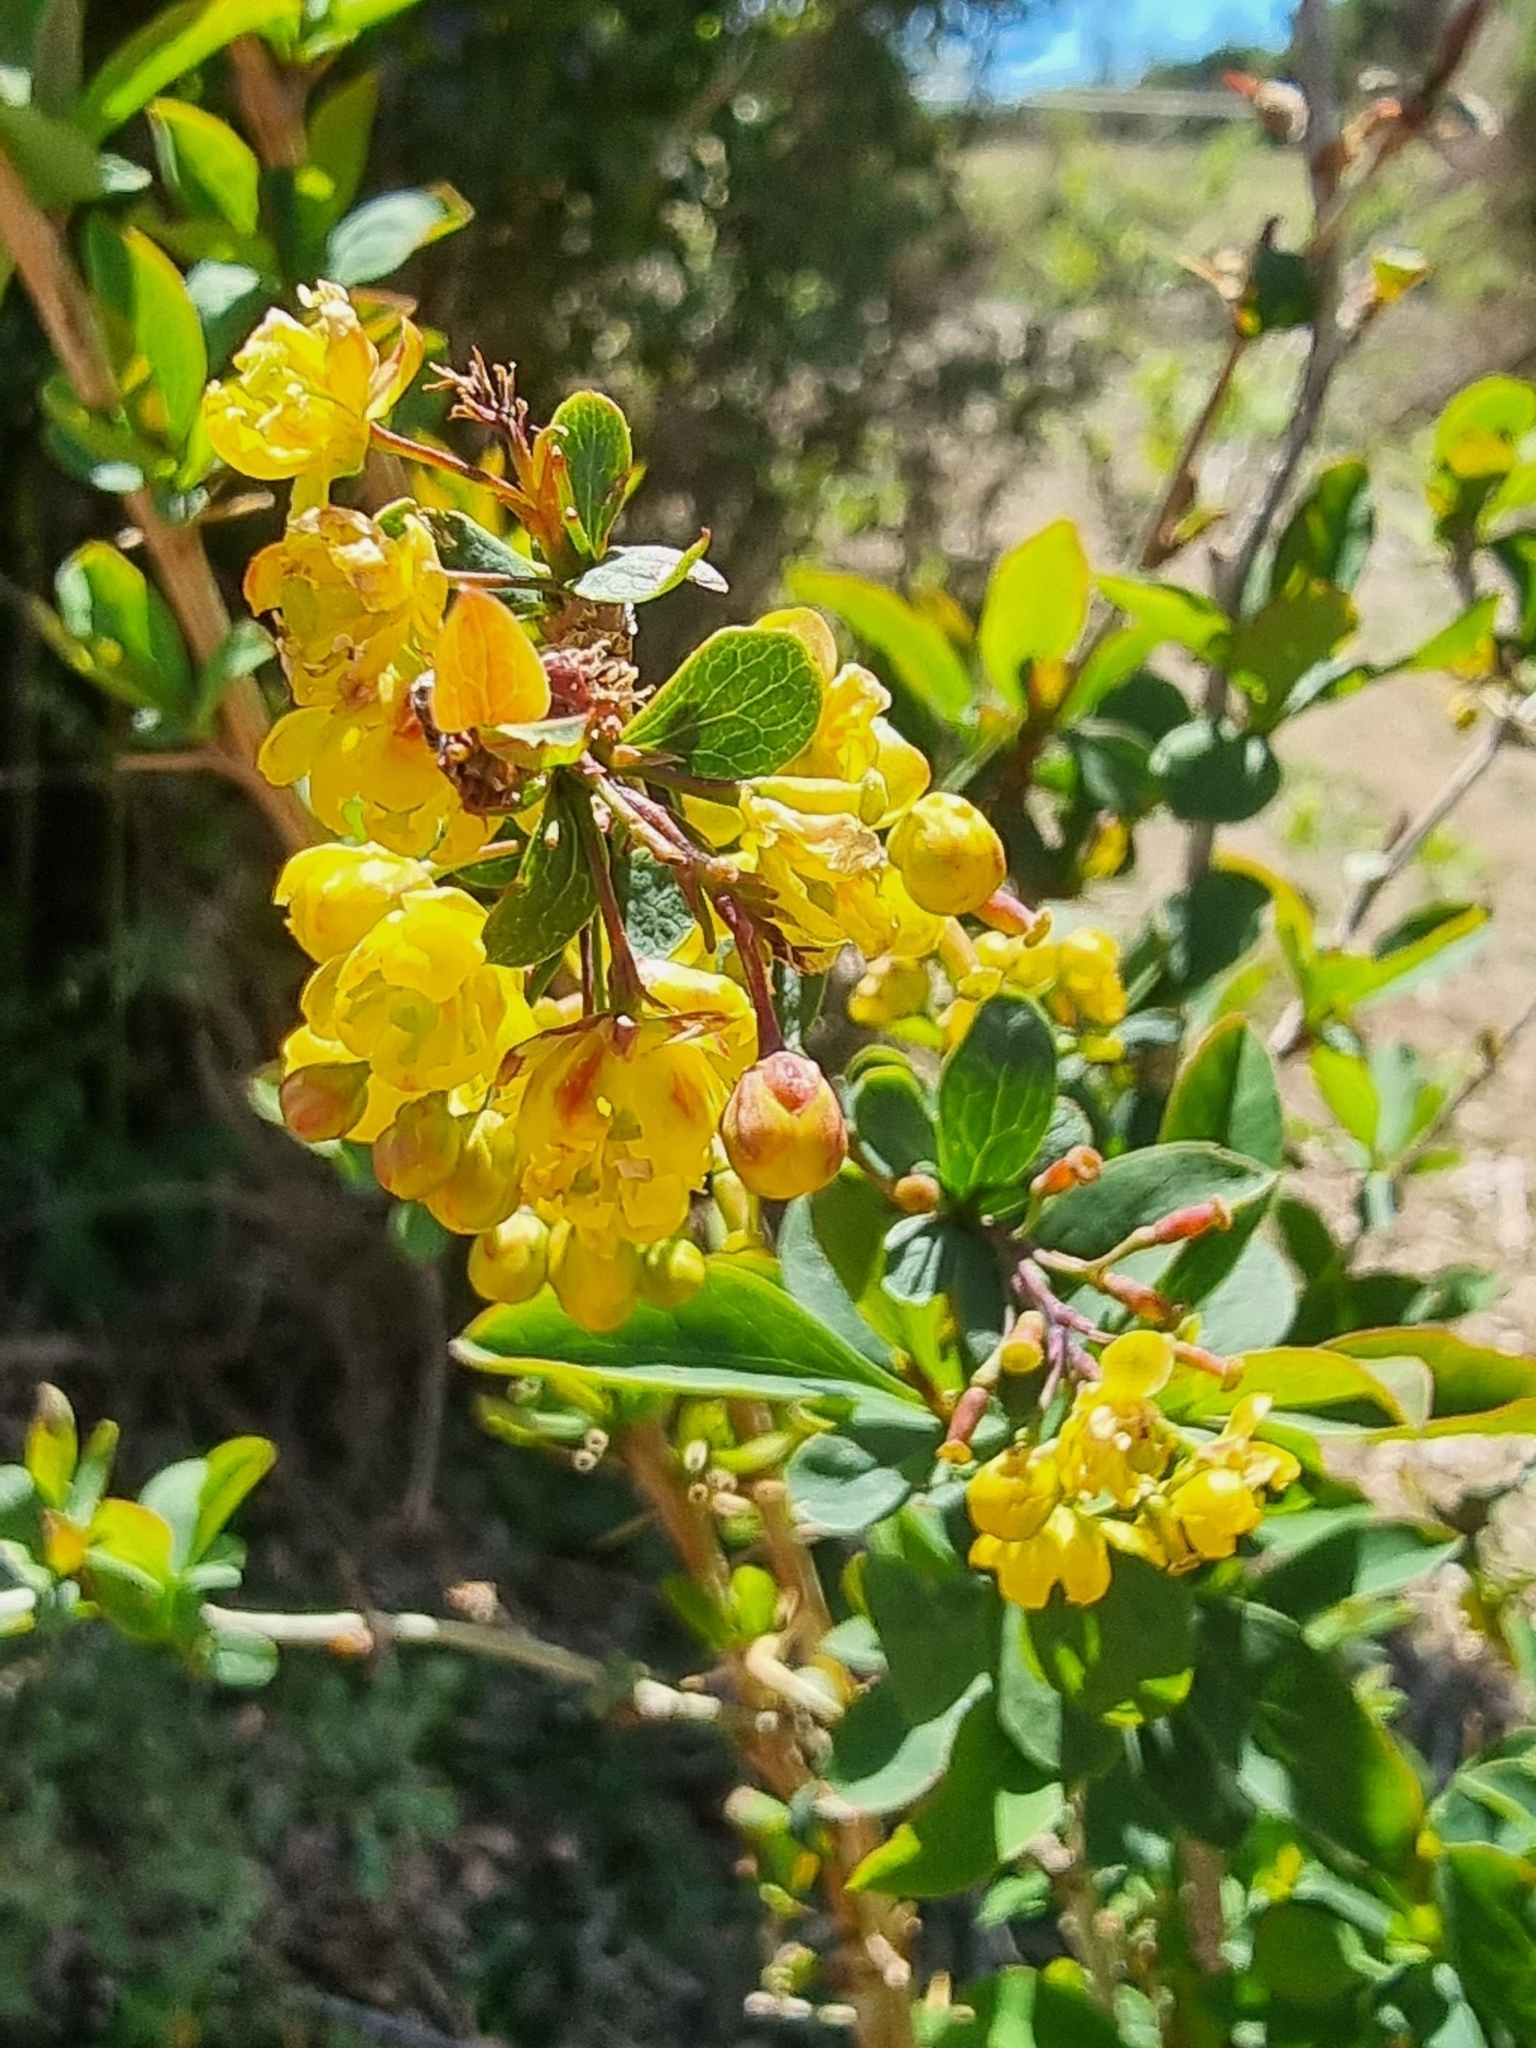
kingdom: Plantae
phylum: Tracheophyta
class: Magnoliopsida
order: Ranunculales
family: Berberidaceae
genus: Berberis
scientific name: Berberis maderensis
